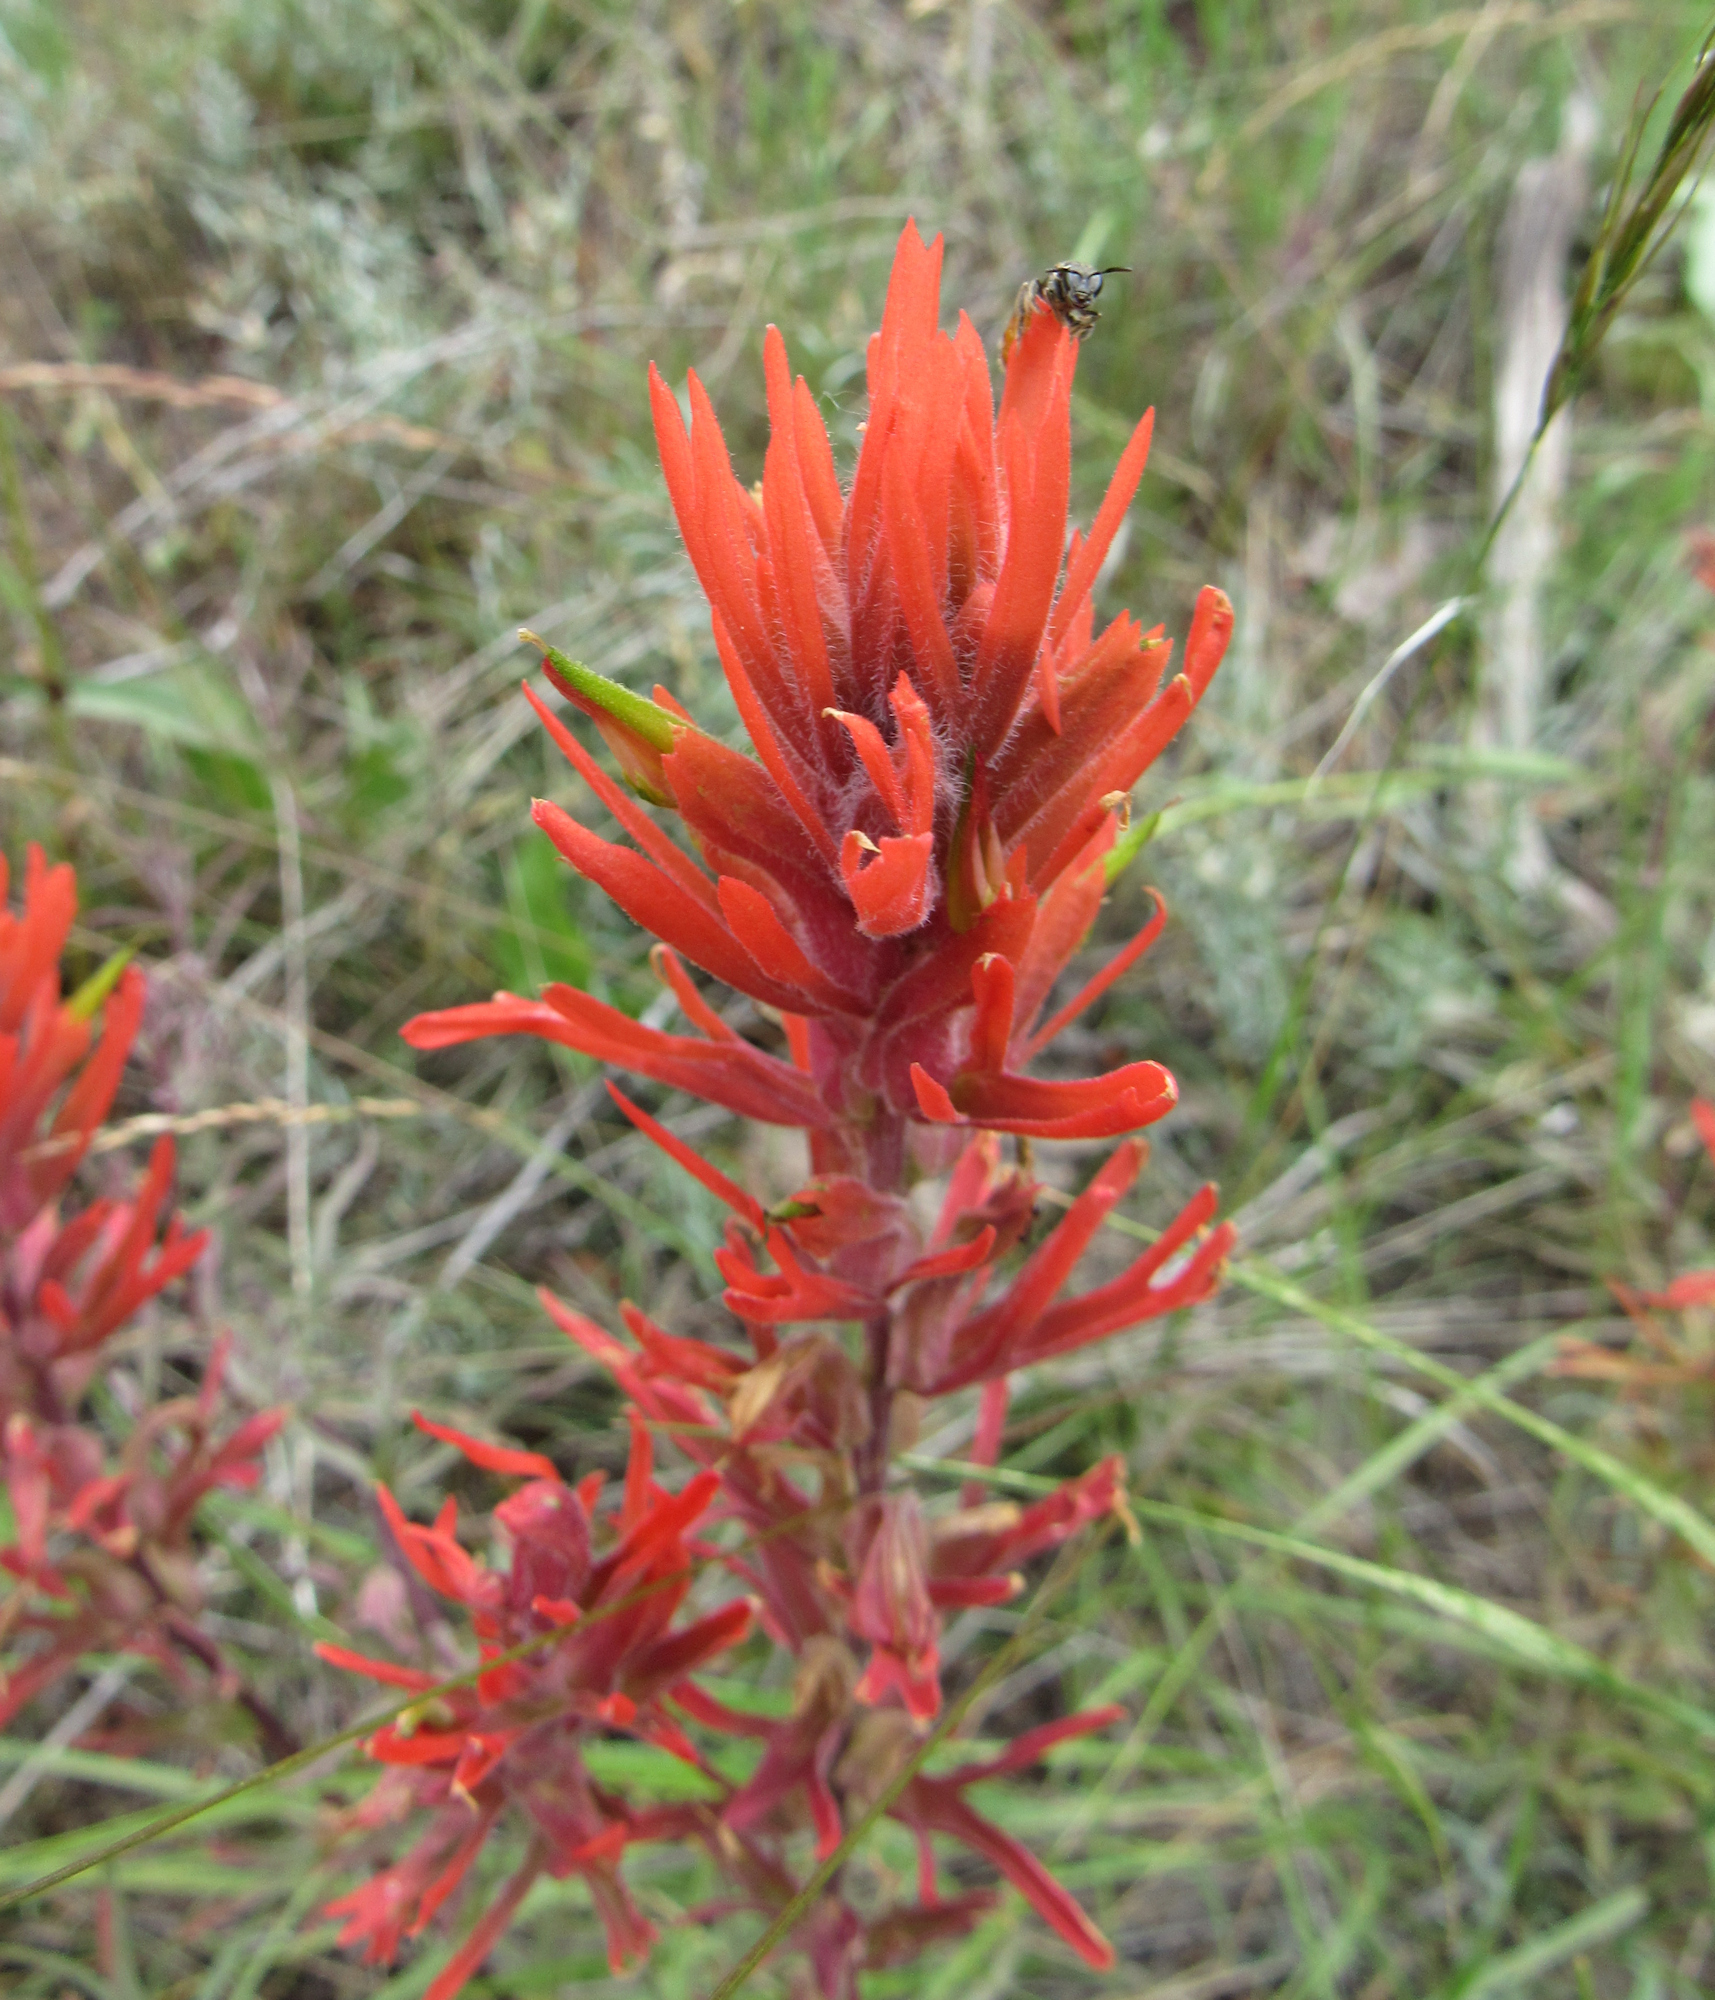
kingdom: Plantae
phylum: Tracheophyta
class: Magnoliopsida
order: Lamiales
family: Orobanchaceae
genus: Castilleja
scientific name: Castilleja crista-galli
